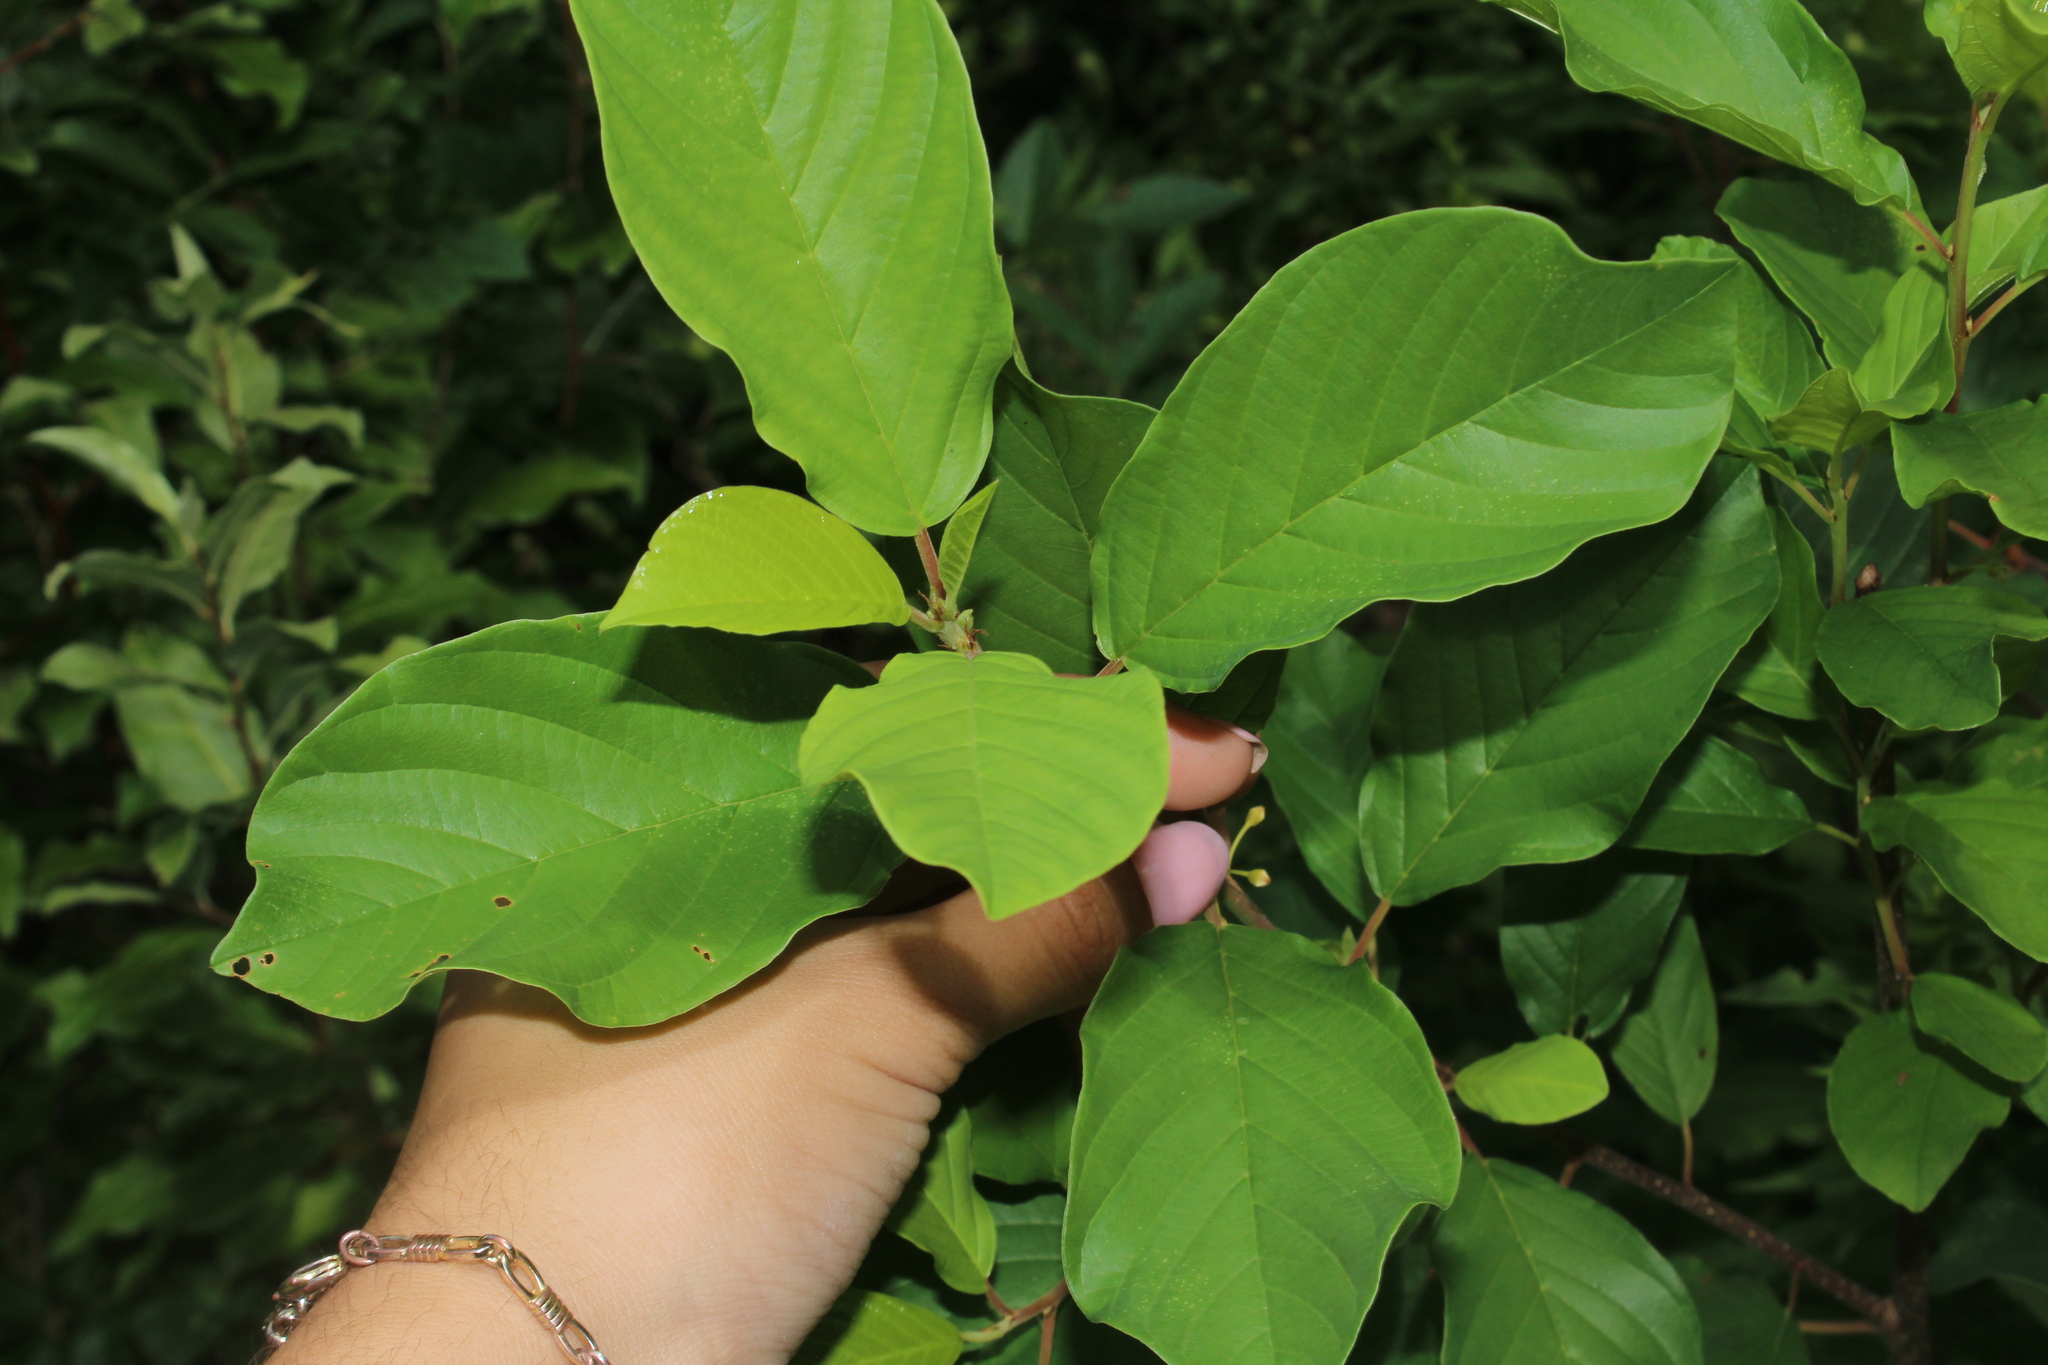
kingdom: Plantae
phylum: Tracheophyta
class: Magnoliopsida
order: Rosales
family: Rhamnaceae
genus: Frangula
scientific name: Frangula alnus
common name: Alder buckthorn
